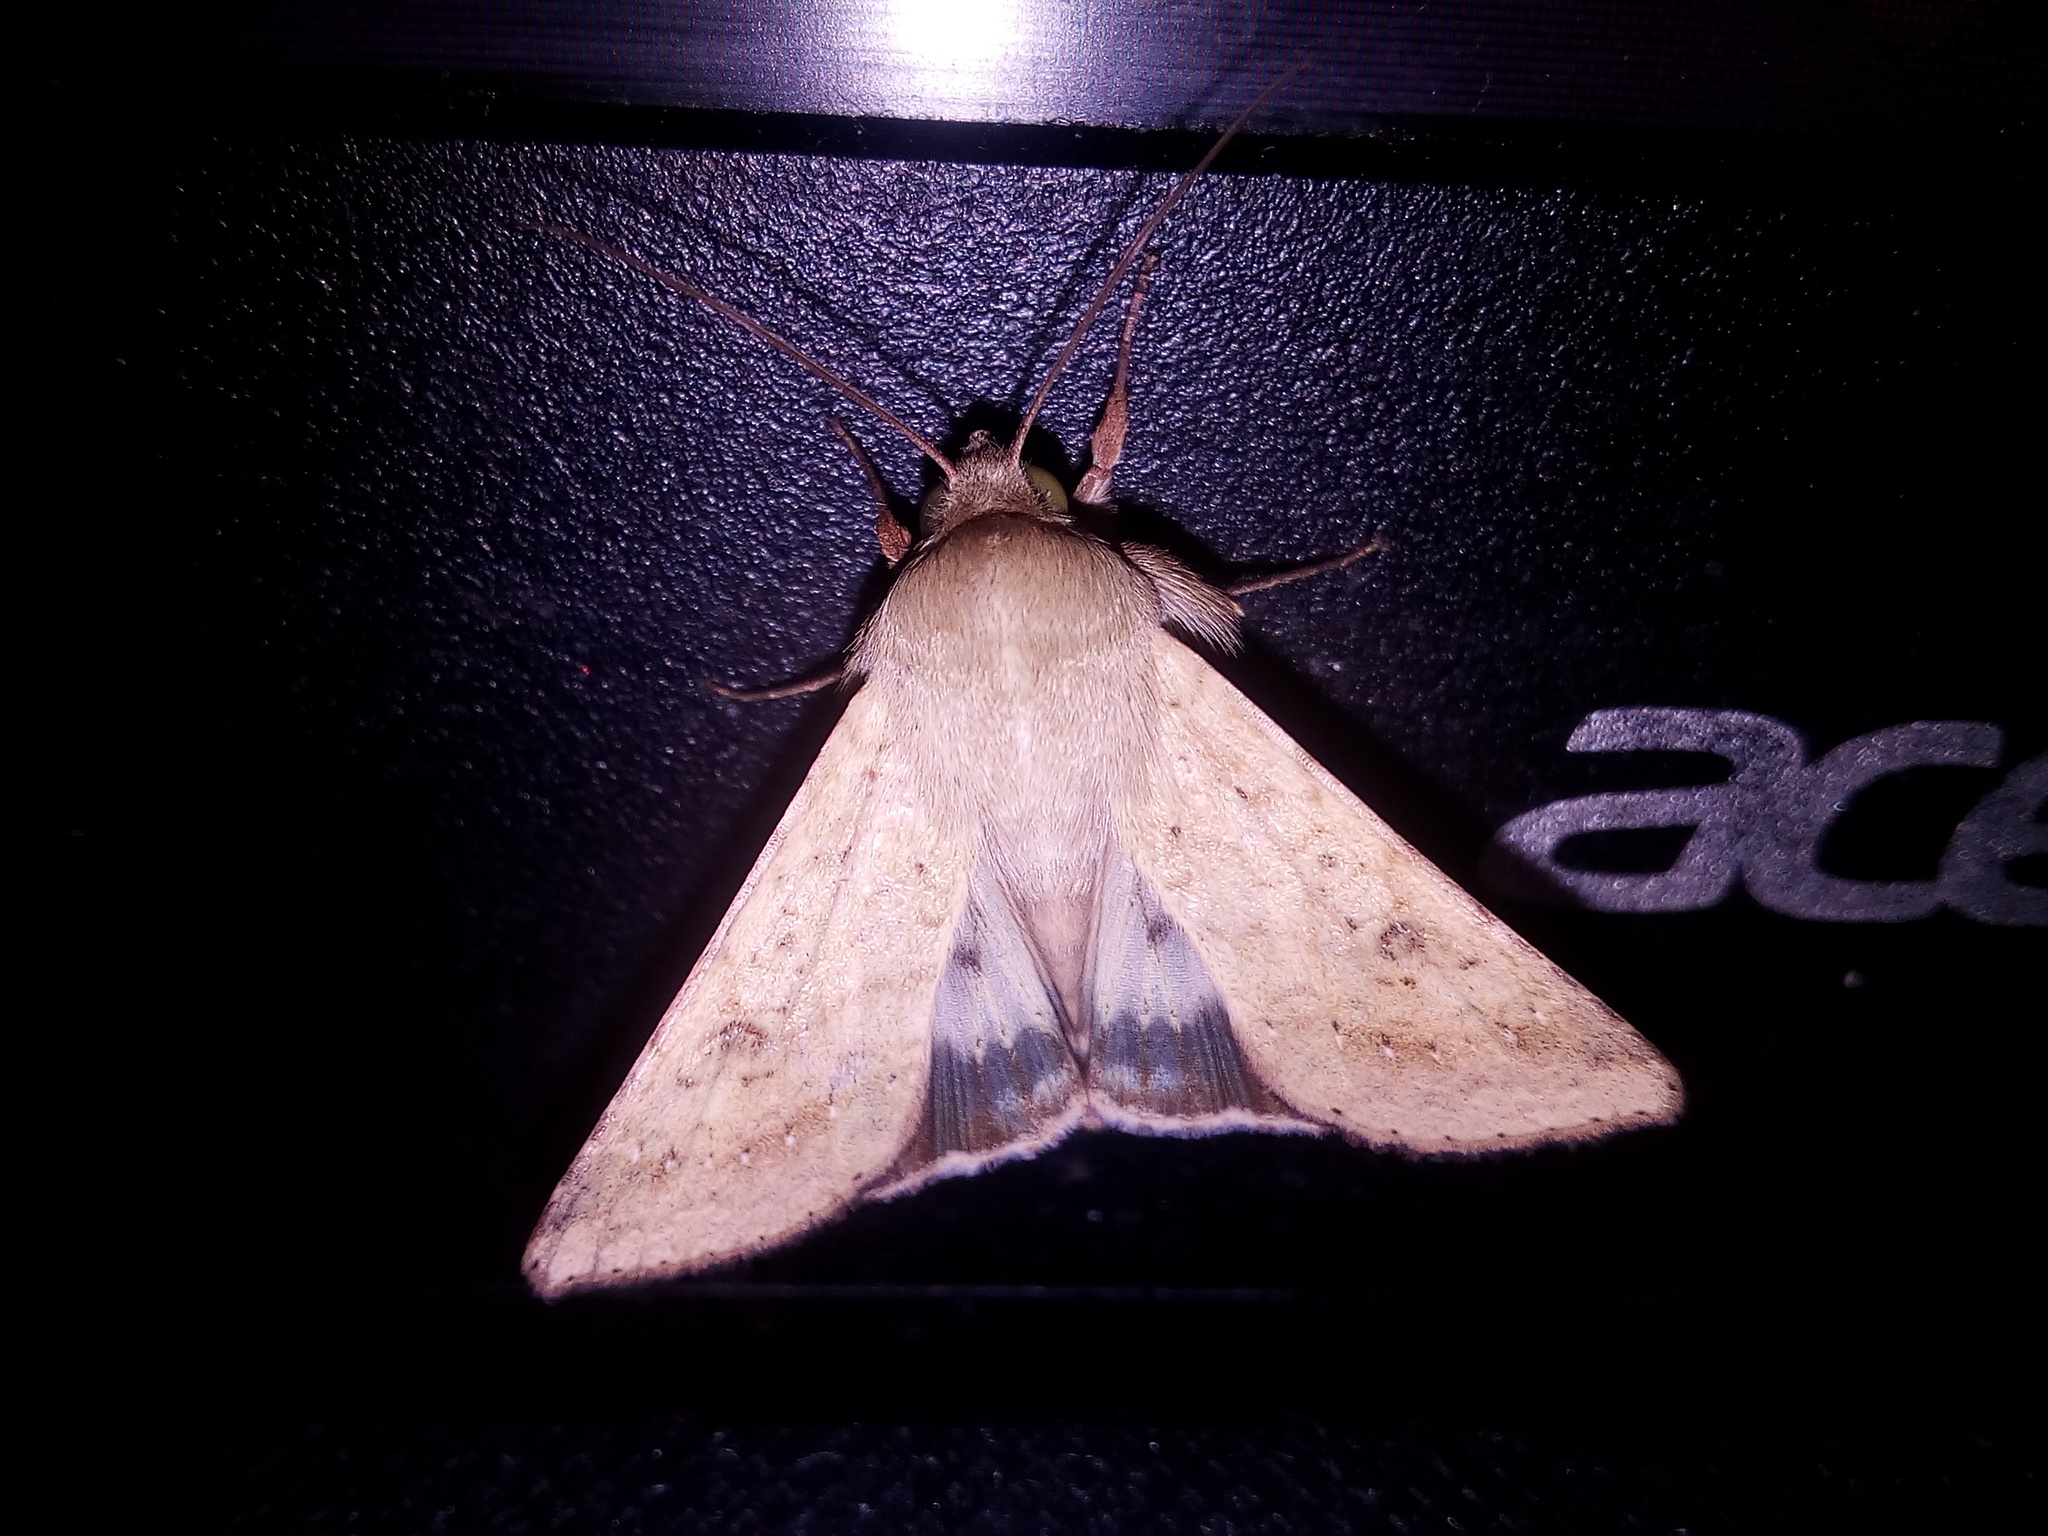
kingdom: Animalia
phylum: Arthropoda
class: Insecta
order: Lepidoptera
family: Noctuidae
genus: Helicoverpa
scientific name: Helicoverpa armigera
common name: Cotton bollworm
